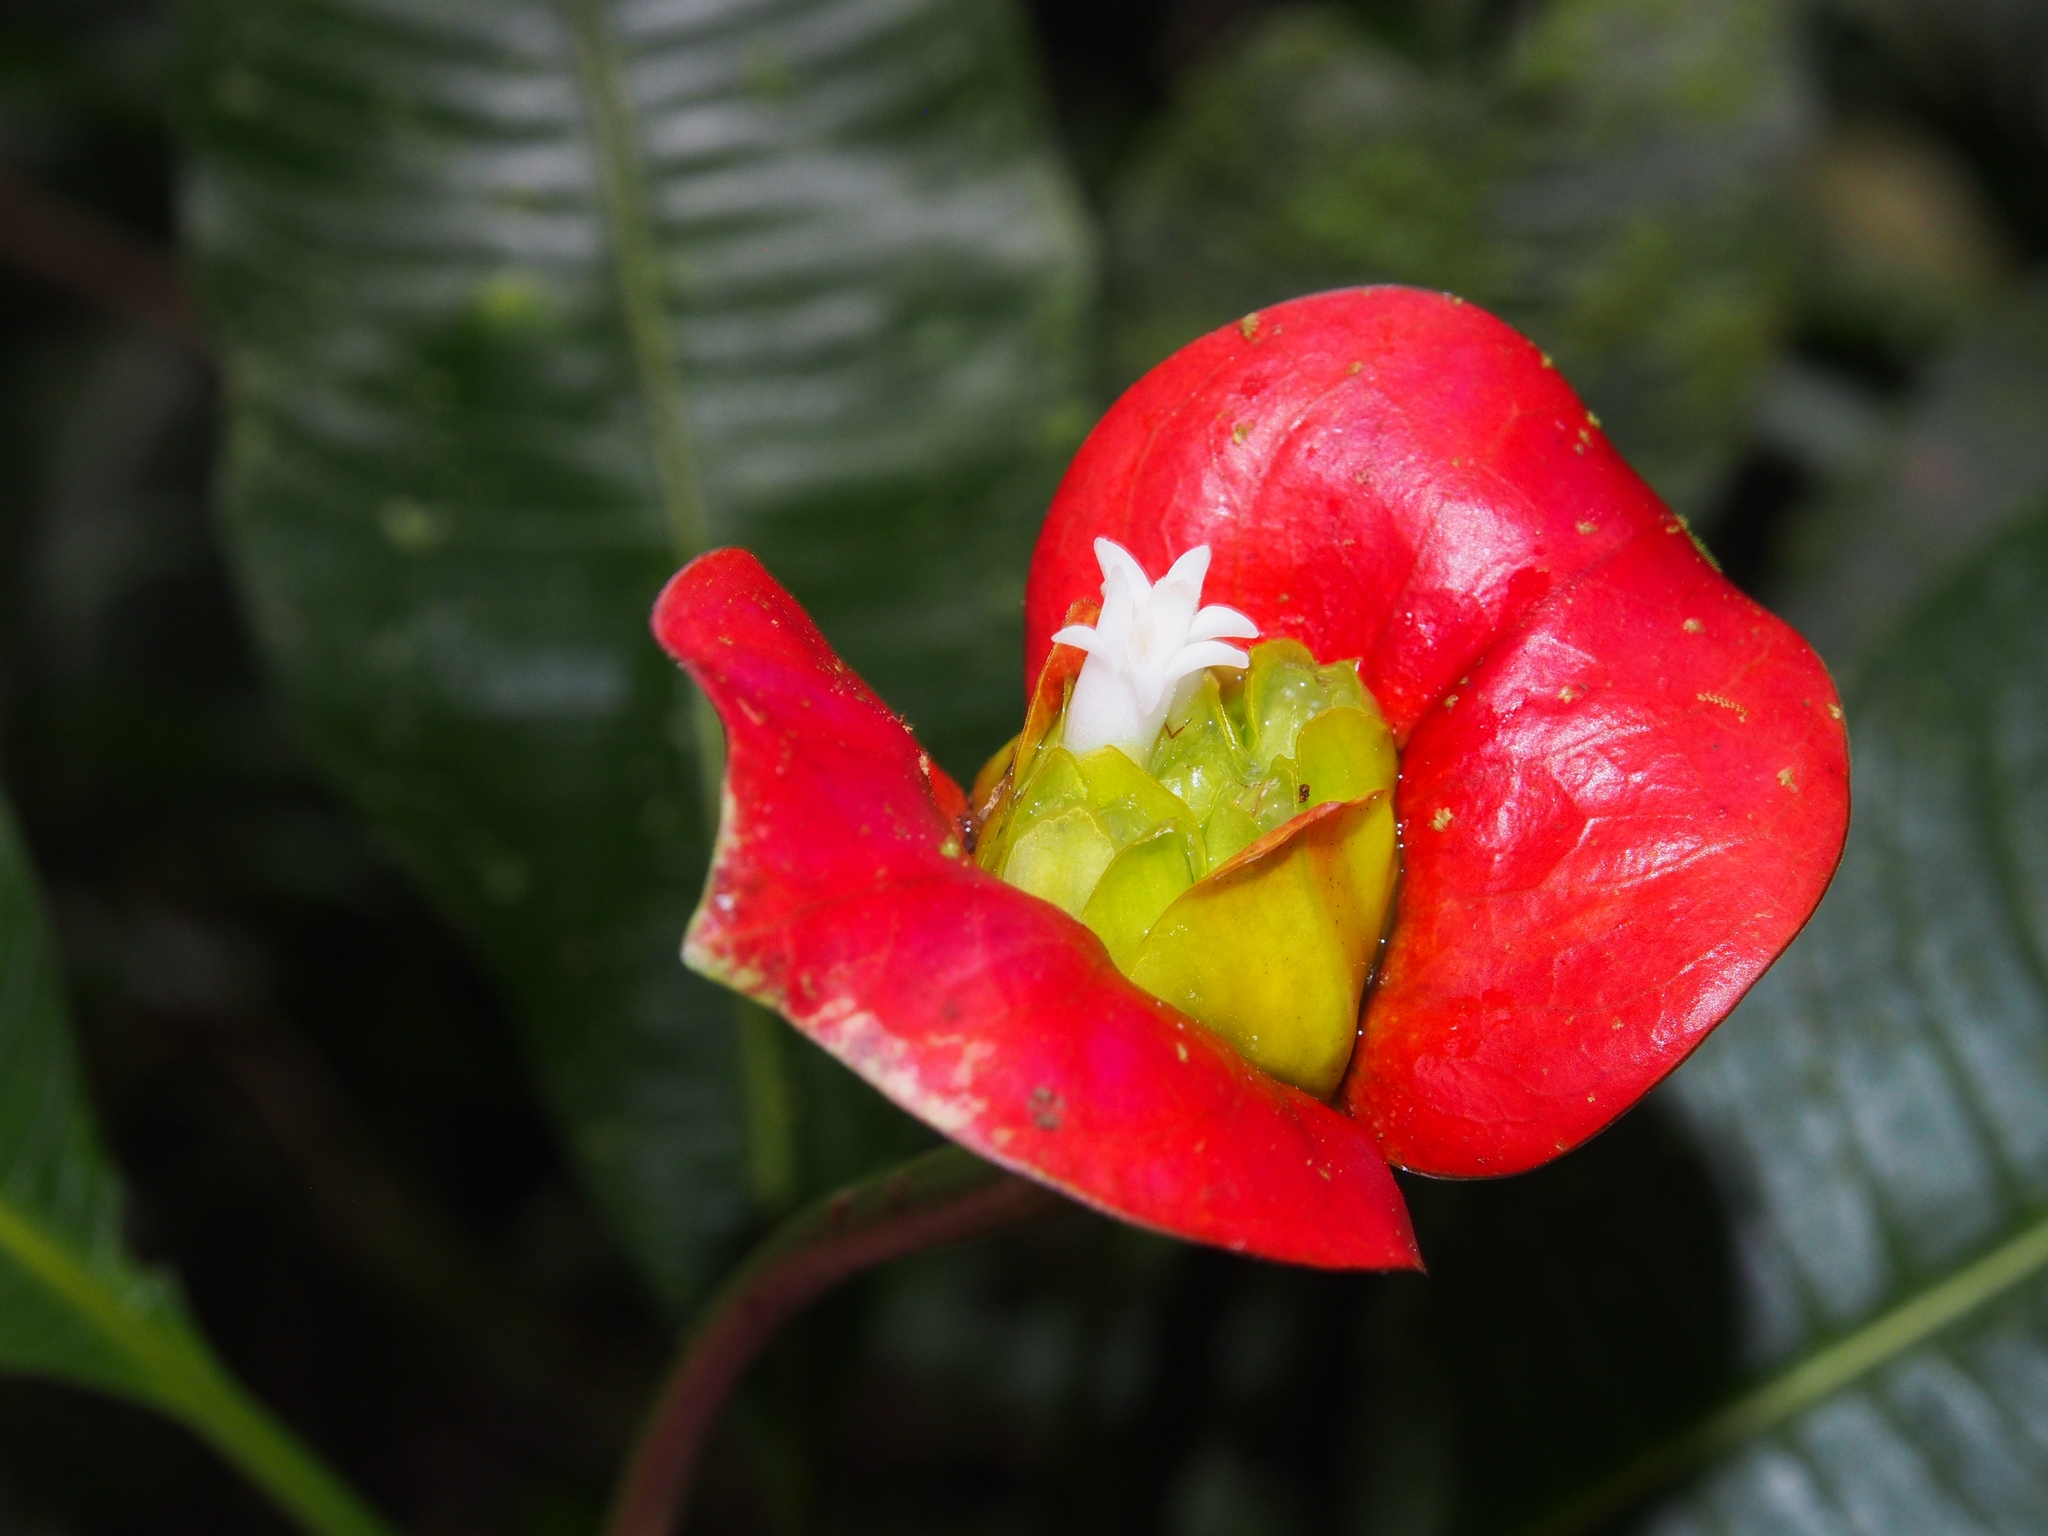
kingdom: Plantae
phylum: Tracheophyta
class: Magnoliopsida
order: Gentianales
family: Rubiaceae
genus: Palicourea
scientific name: Palicourea elata
